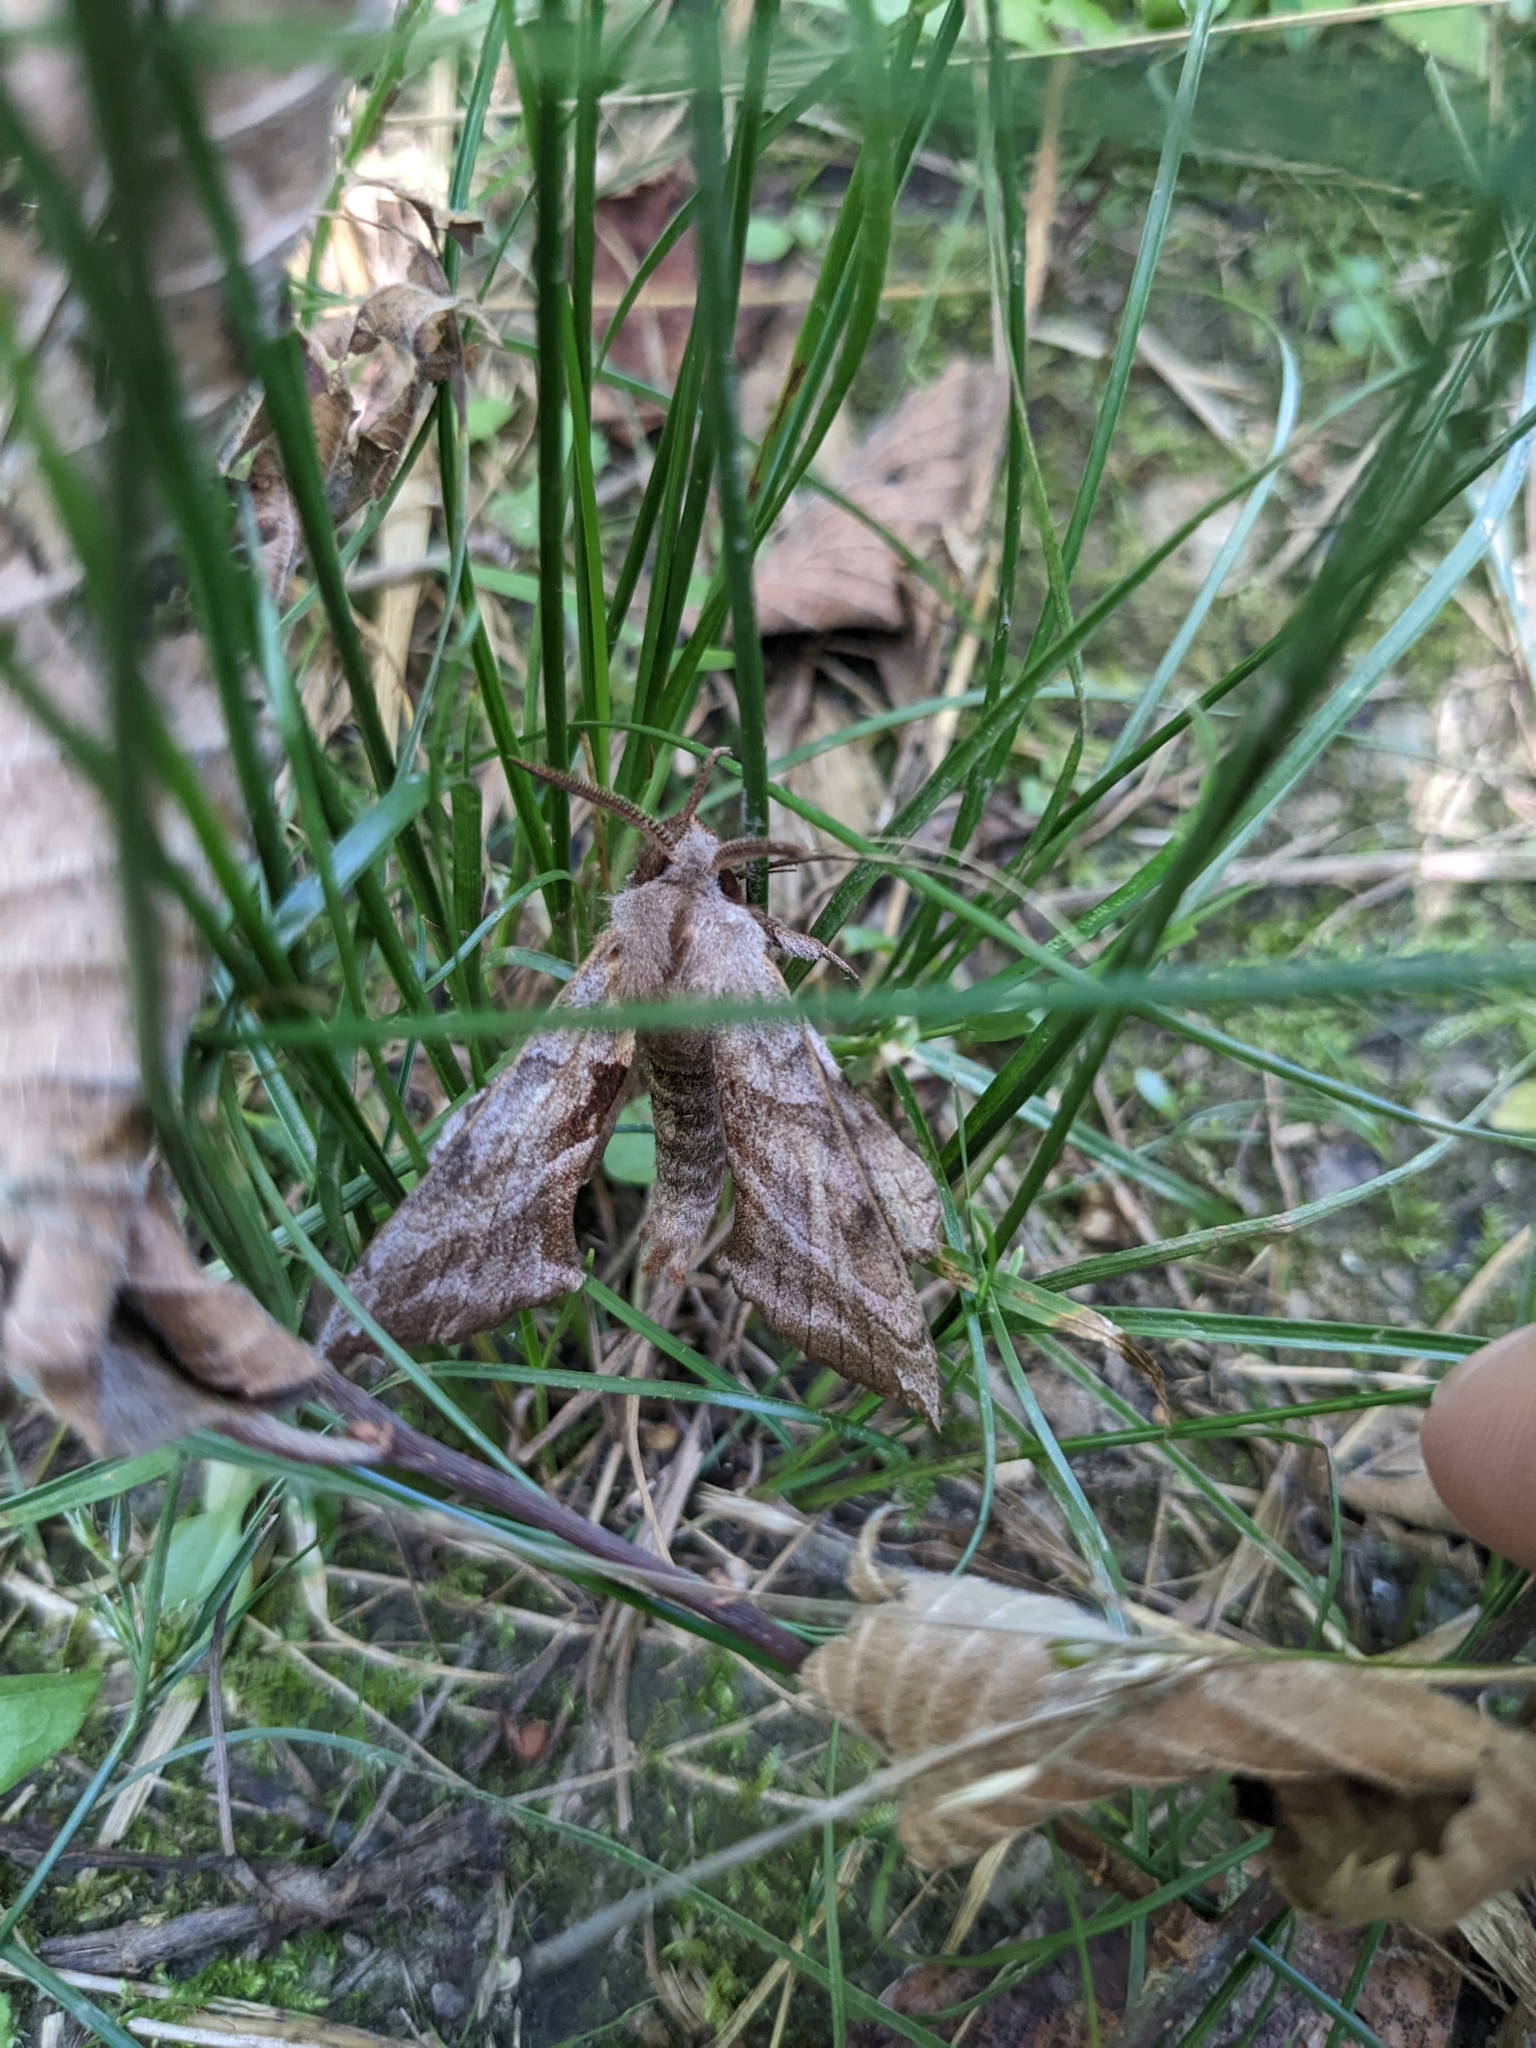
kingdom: Animalia
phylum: Arthropoda
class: Insecta
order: Lepidoptera
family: Sphingidae
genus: Amorpha
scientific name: Amorpha juglandis
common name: Walnut sphinx
